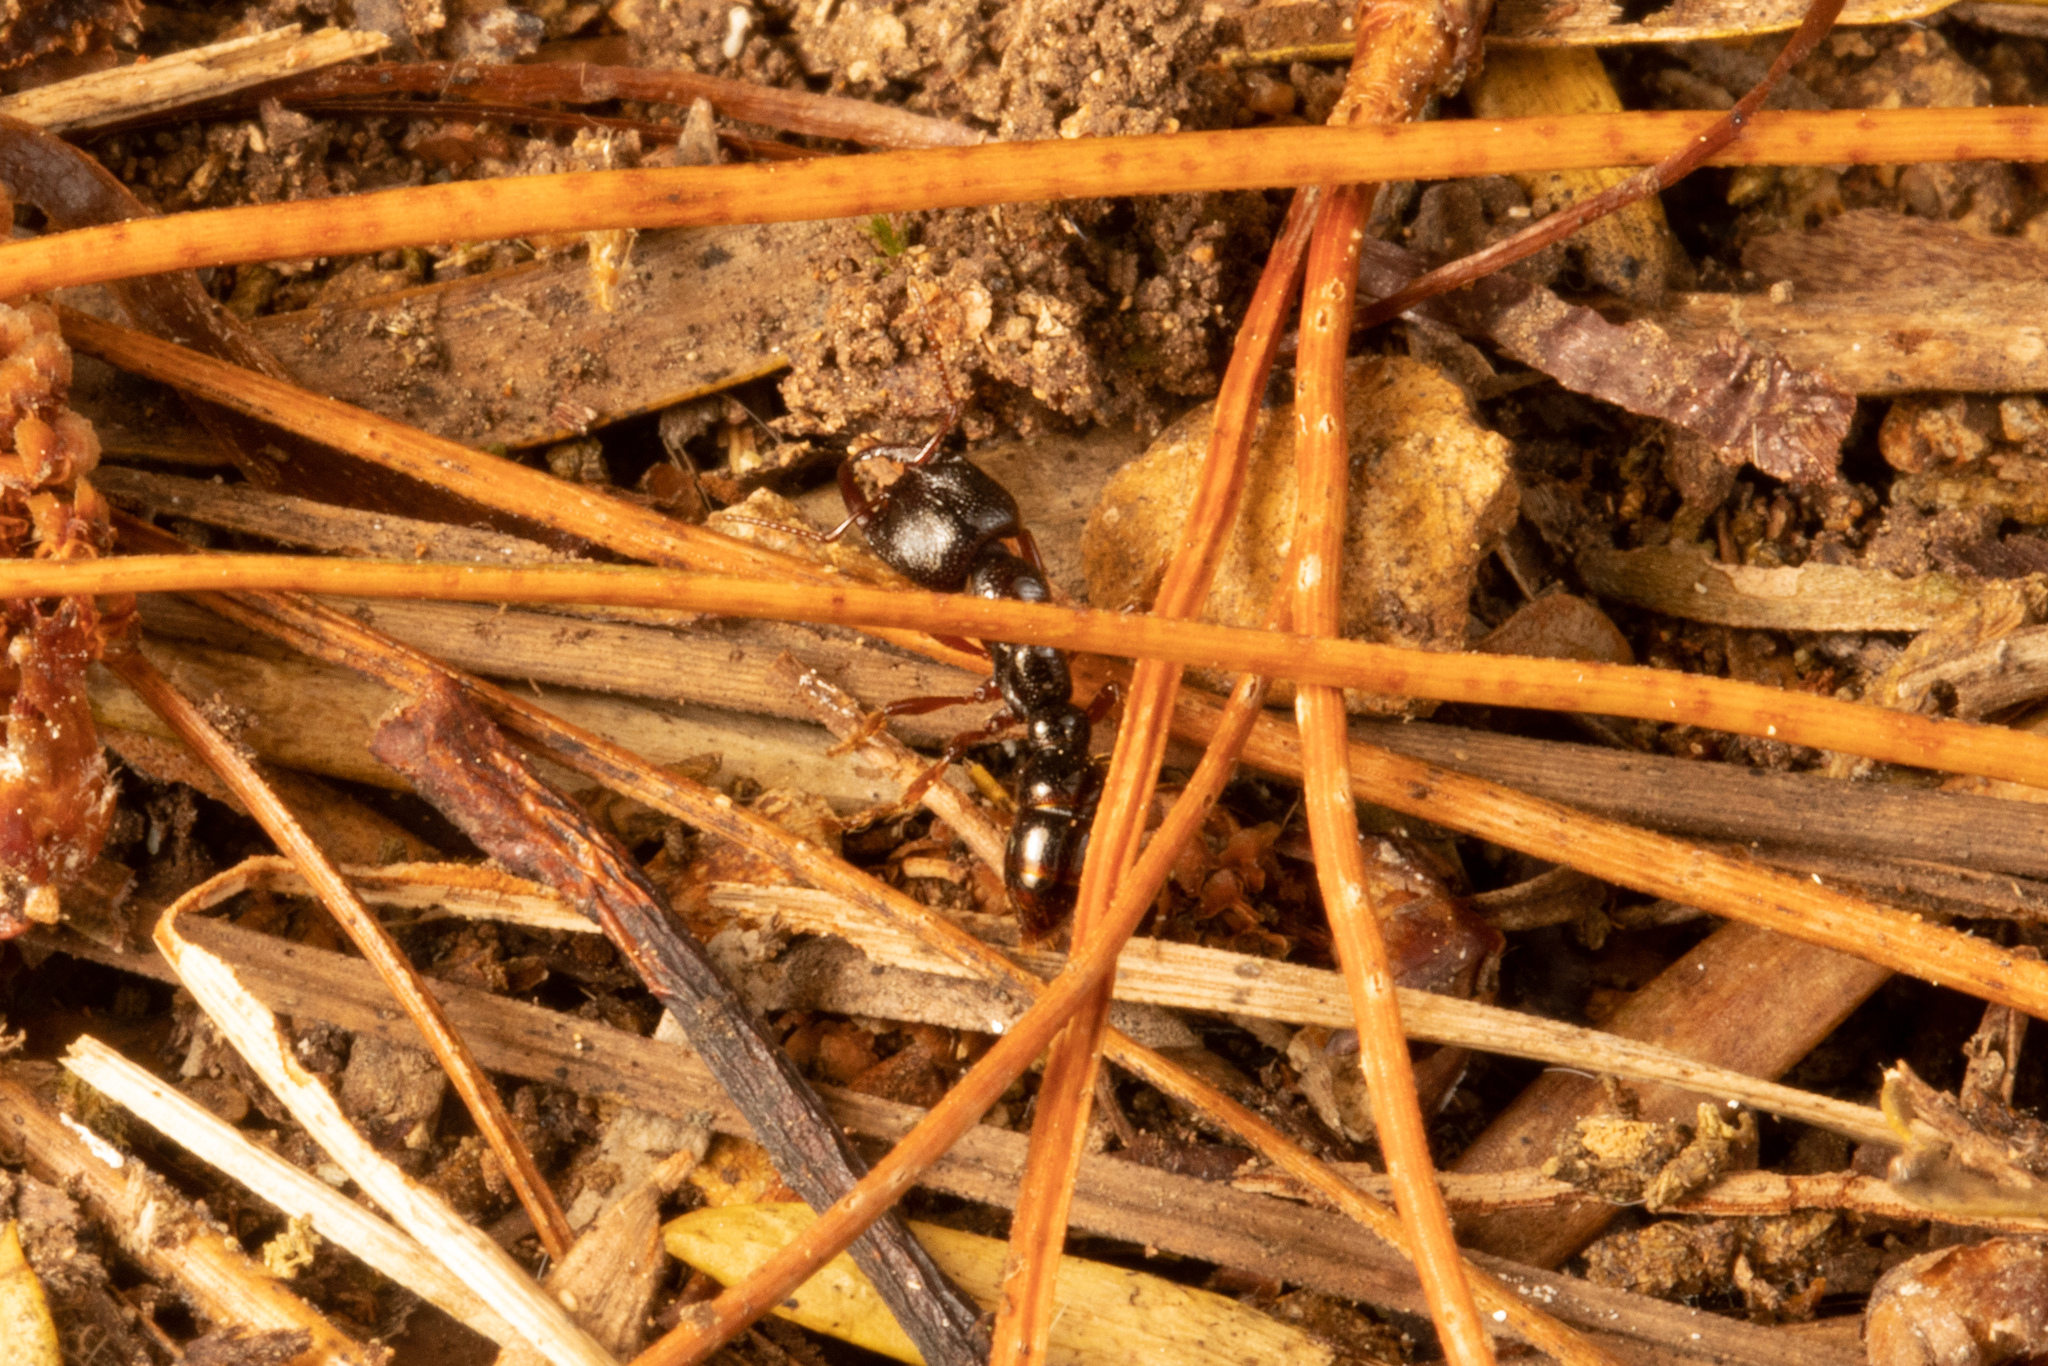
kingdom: Animalia
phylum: Arthropoda
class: Insecta
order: Hymenoptera
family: Formicidae
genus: Amblyopone
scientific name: Amblyopone australis
